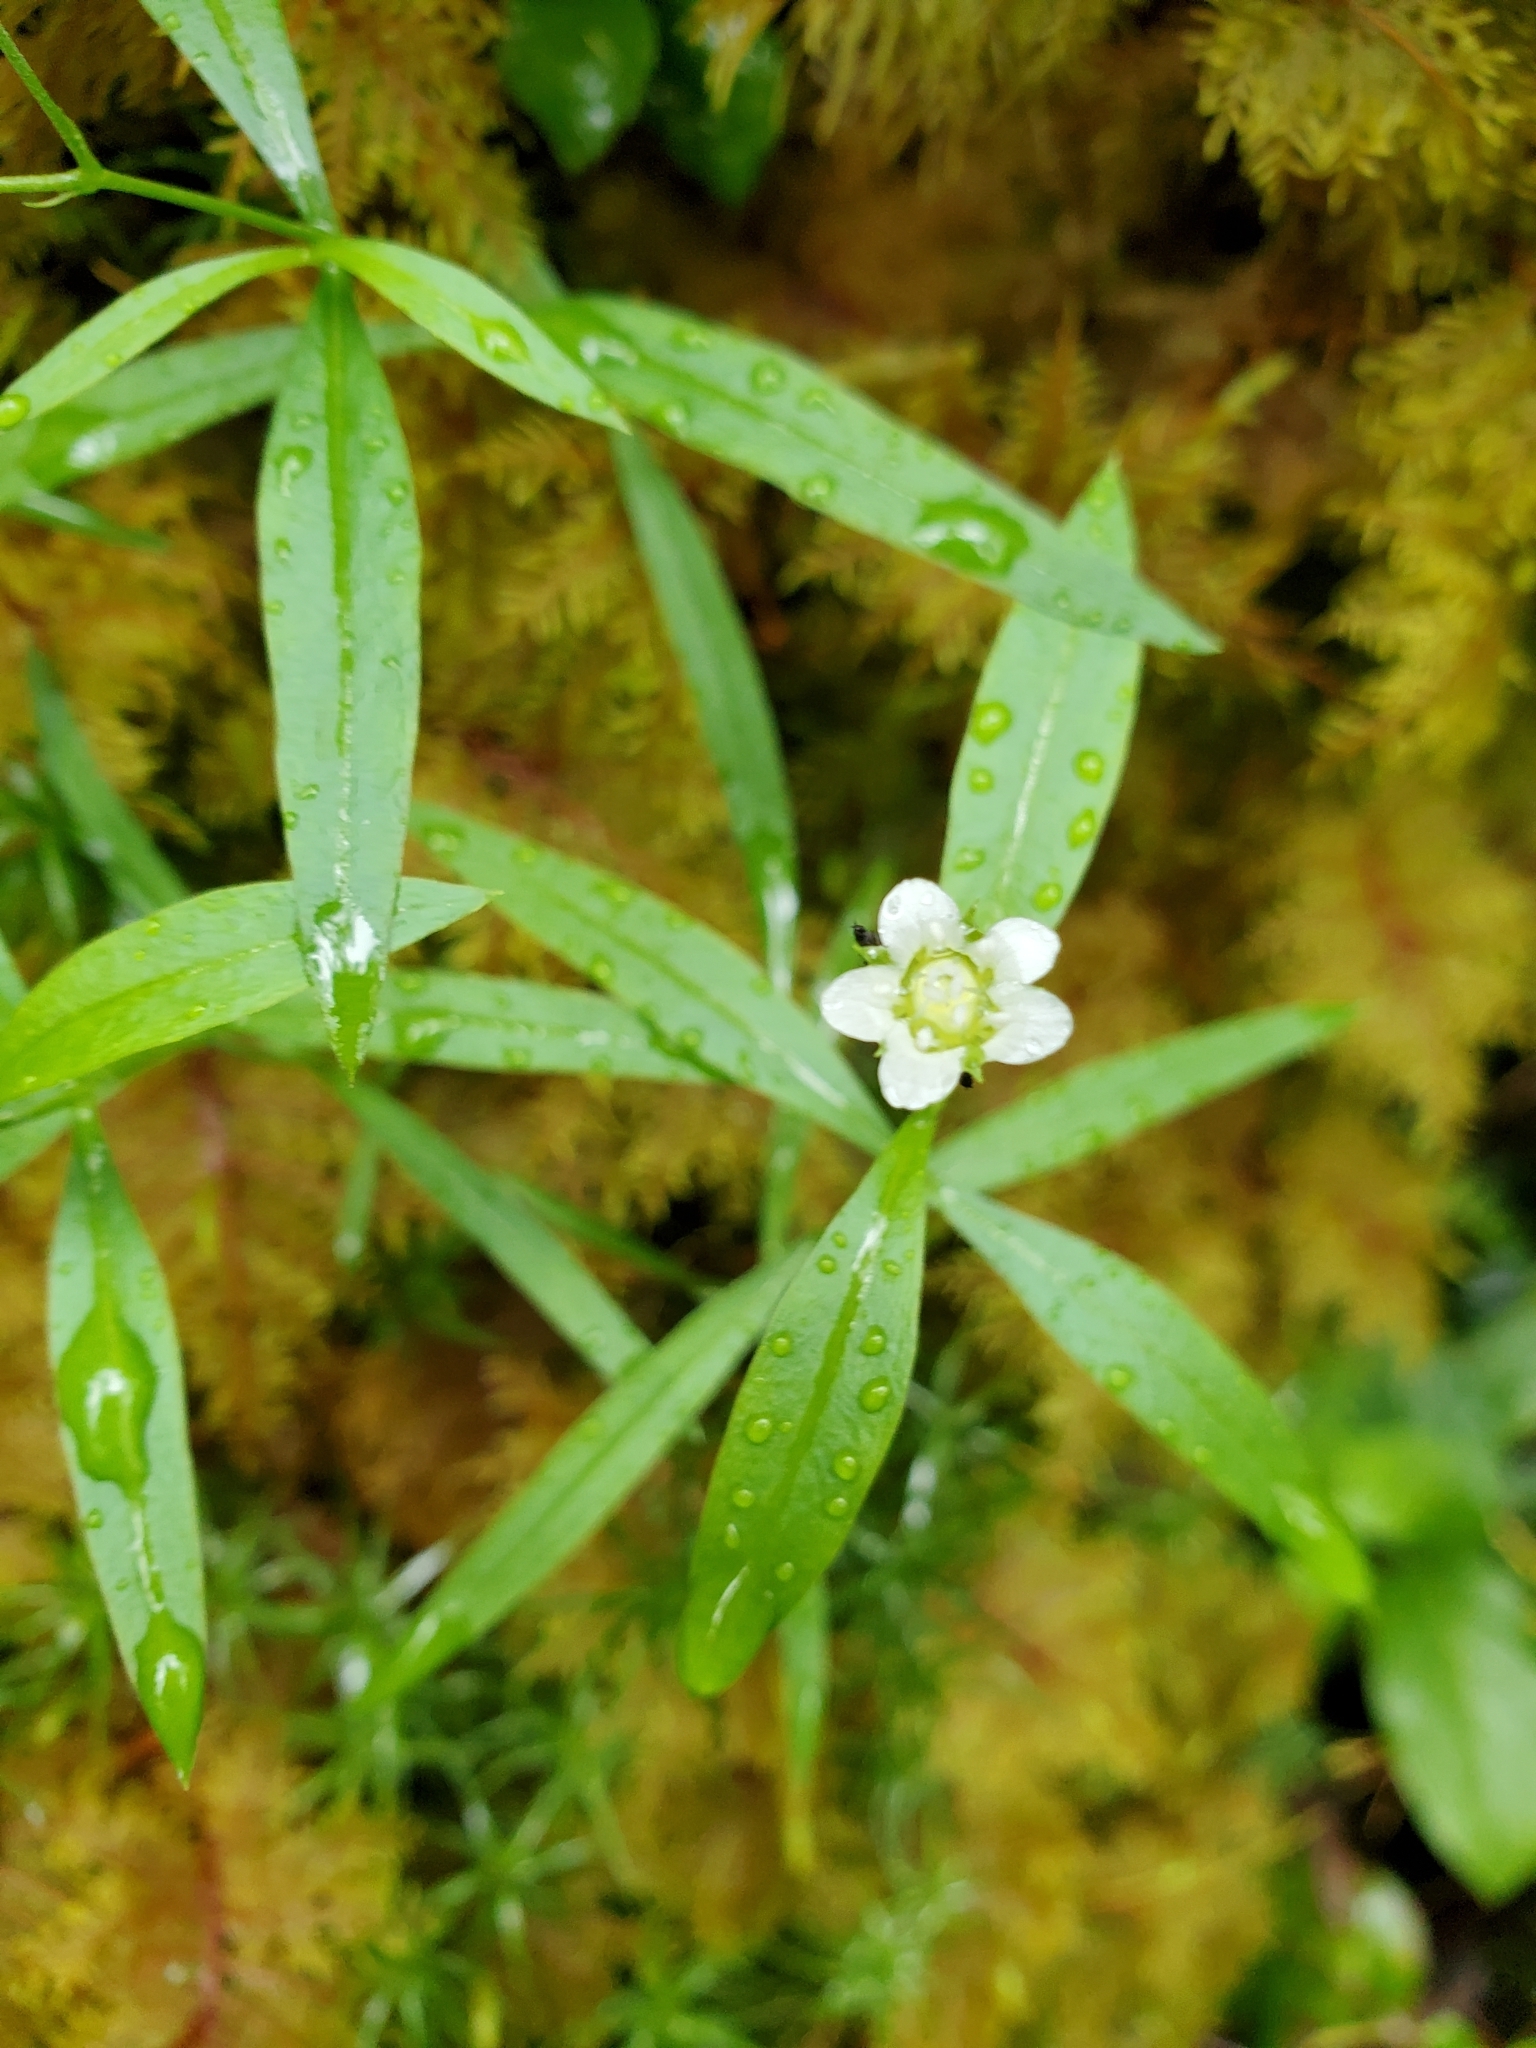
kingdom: Plantae
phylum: Tracheophyta
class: Magnoliopsida
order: Caryophyllales
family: Caryophyllaceae
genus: Moehringia
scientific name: Moehringia macrophylla
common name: Big-leaf sandwort
